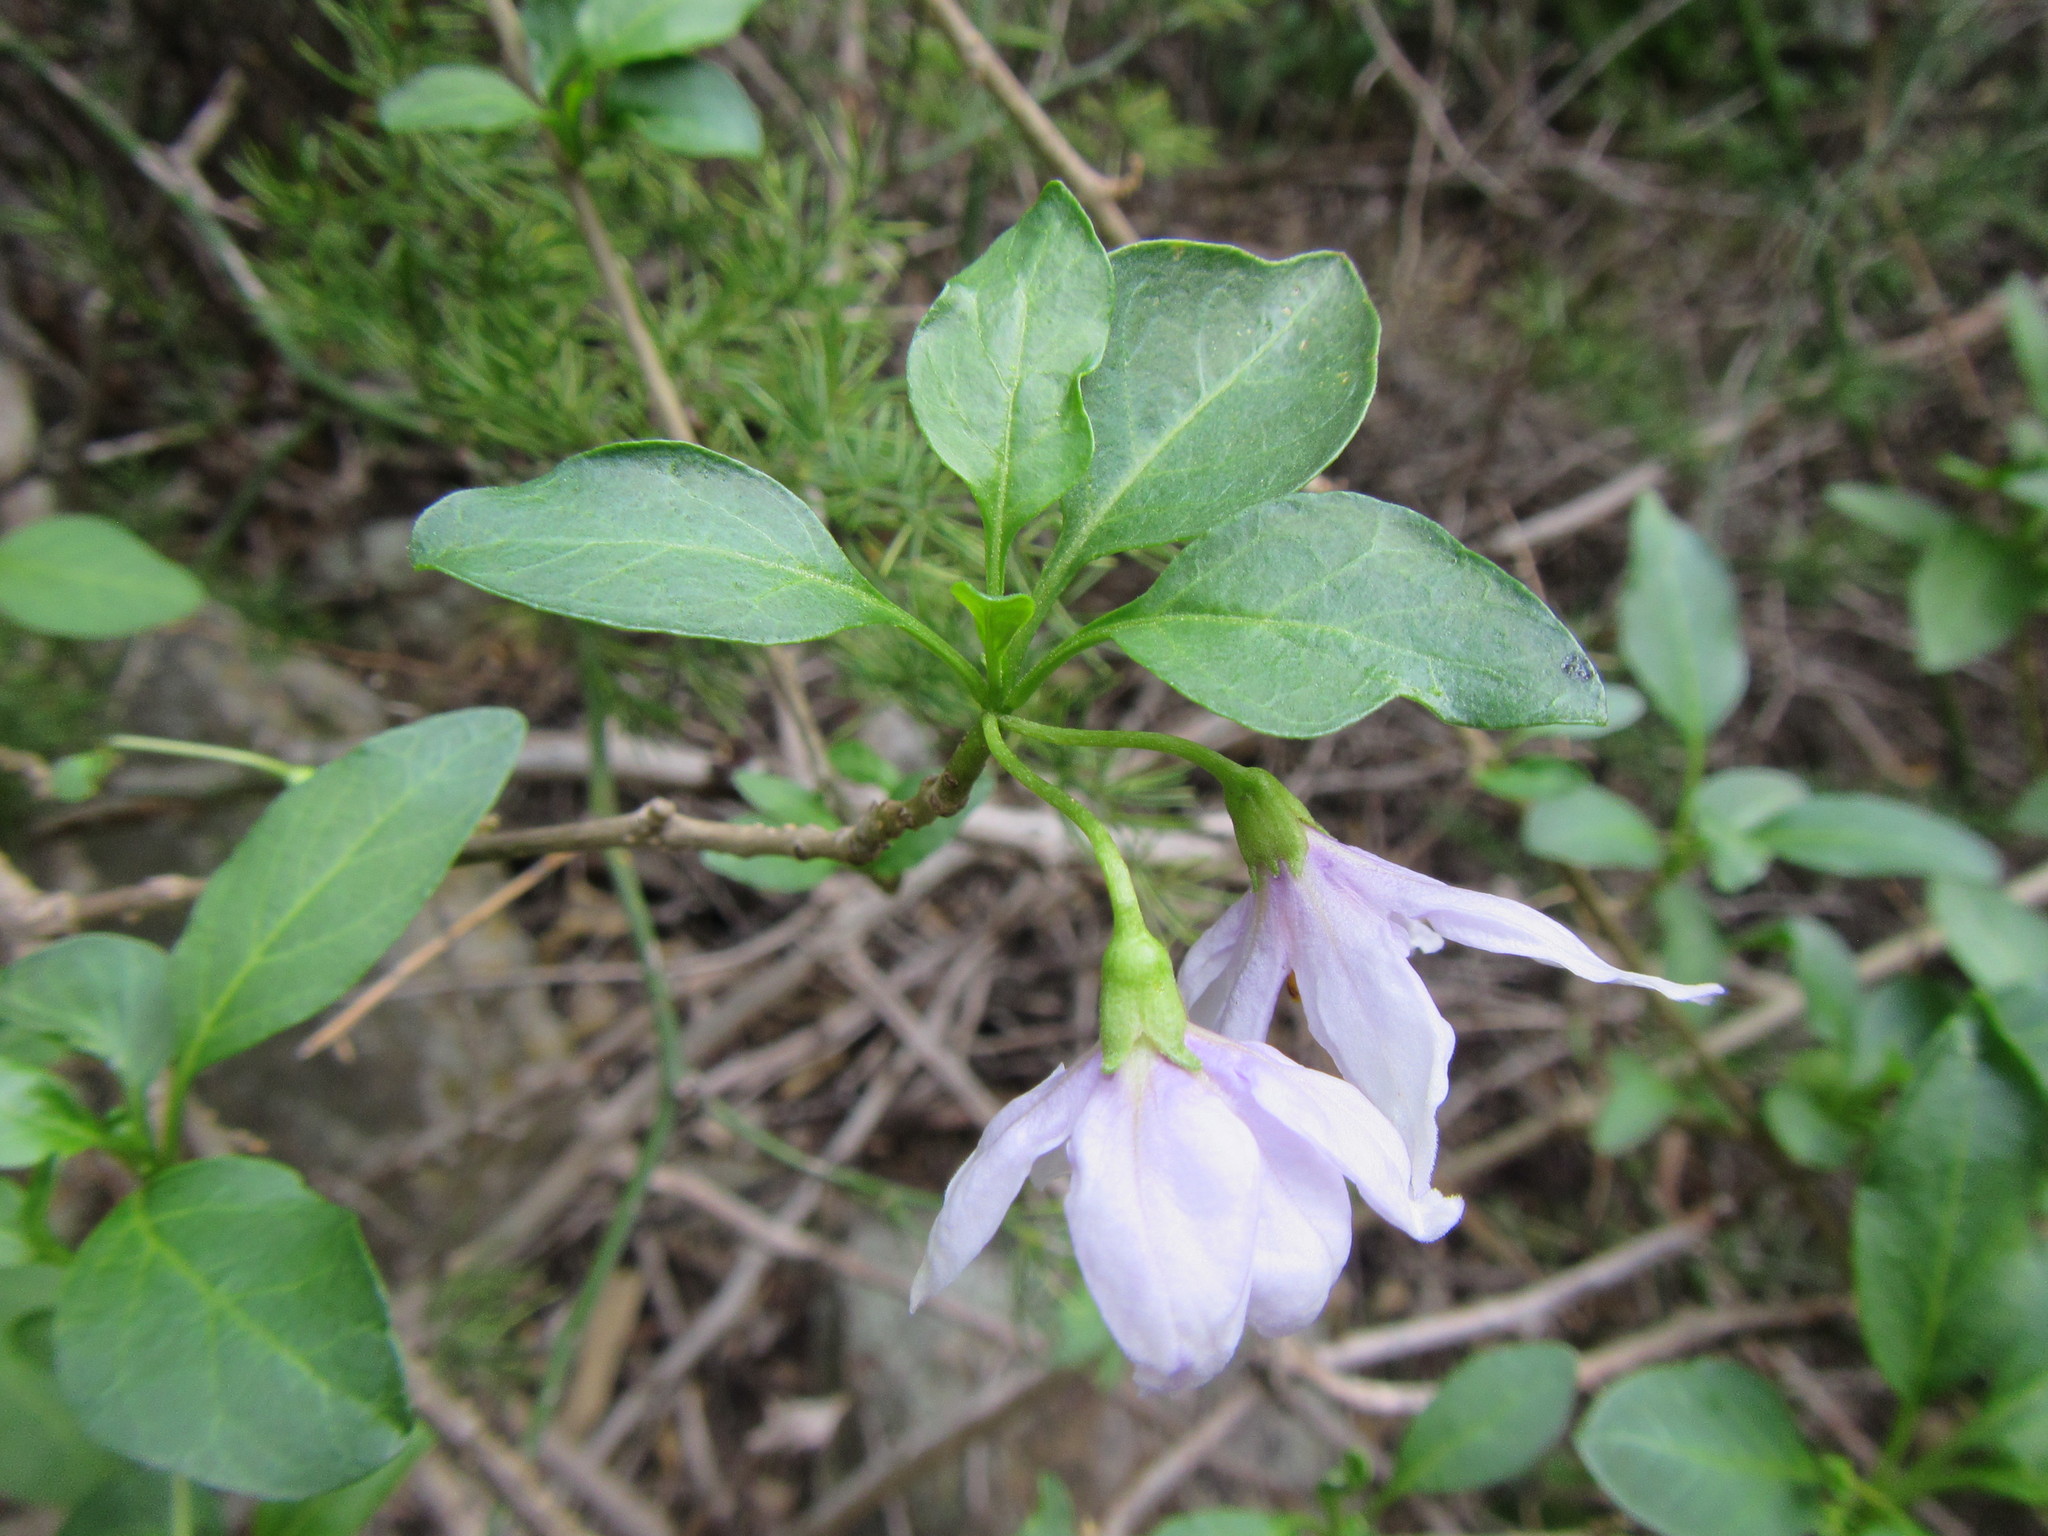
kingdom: Plantae
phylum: Tracheophyta
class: Magnoliopsida
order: Solanales
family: Solanaceae
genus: Solanum
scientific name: Solanum guineense
